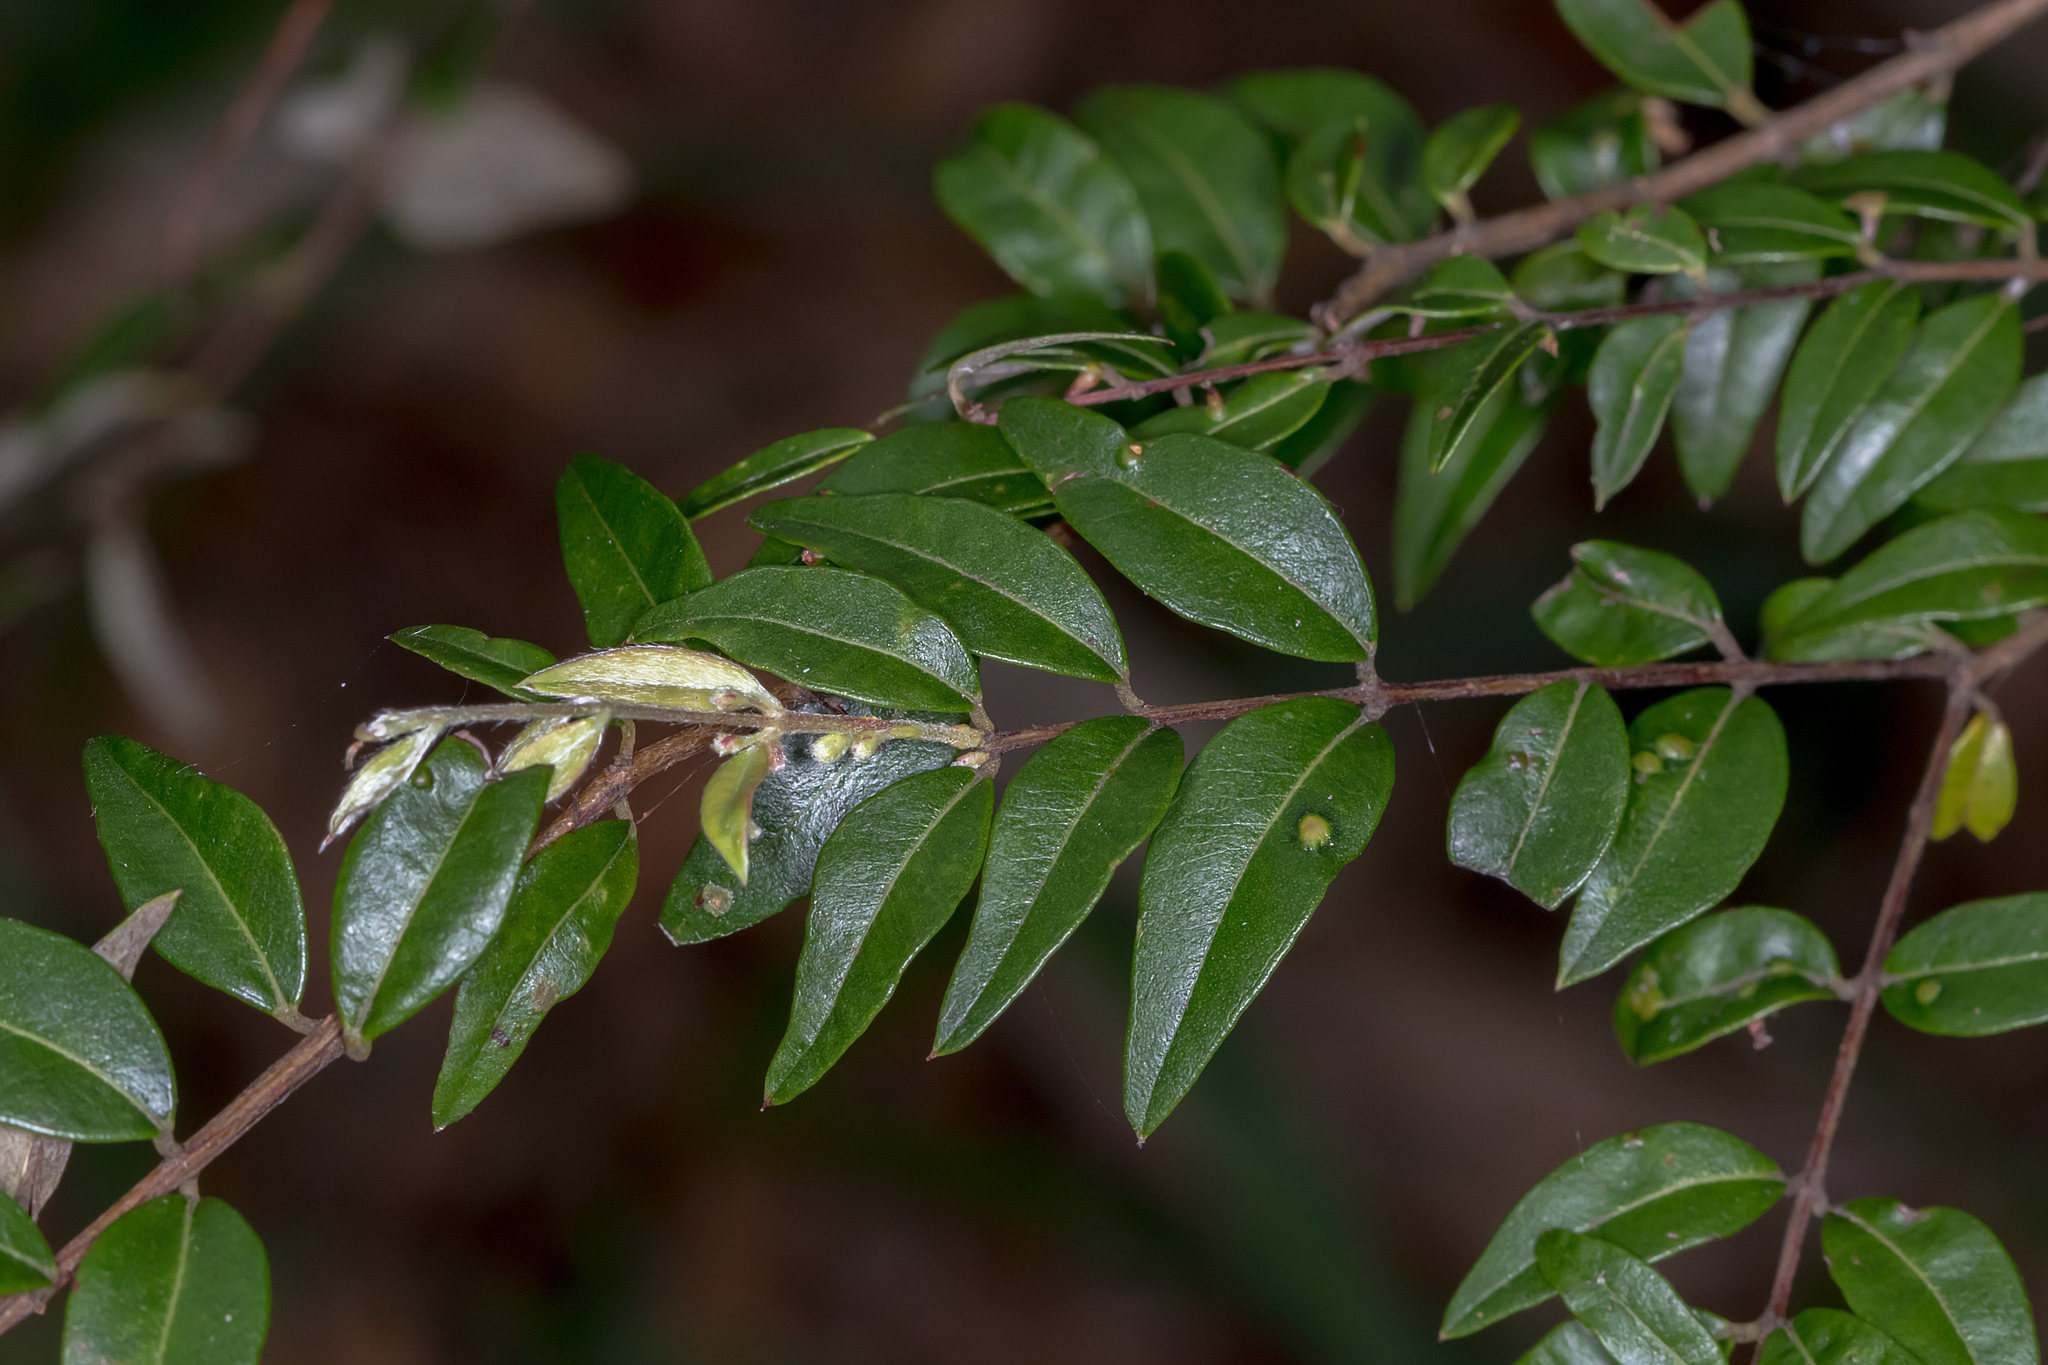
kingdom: Plantae
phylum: Tracheophyta
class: Magnoliopsida
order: Myrtales
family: Myrtaceae
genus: Austromyrtus
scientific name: Austromyrtus dulcis
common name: Migden-berry
